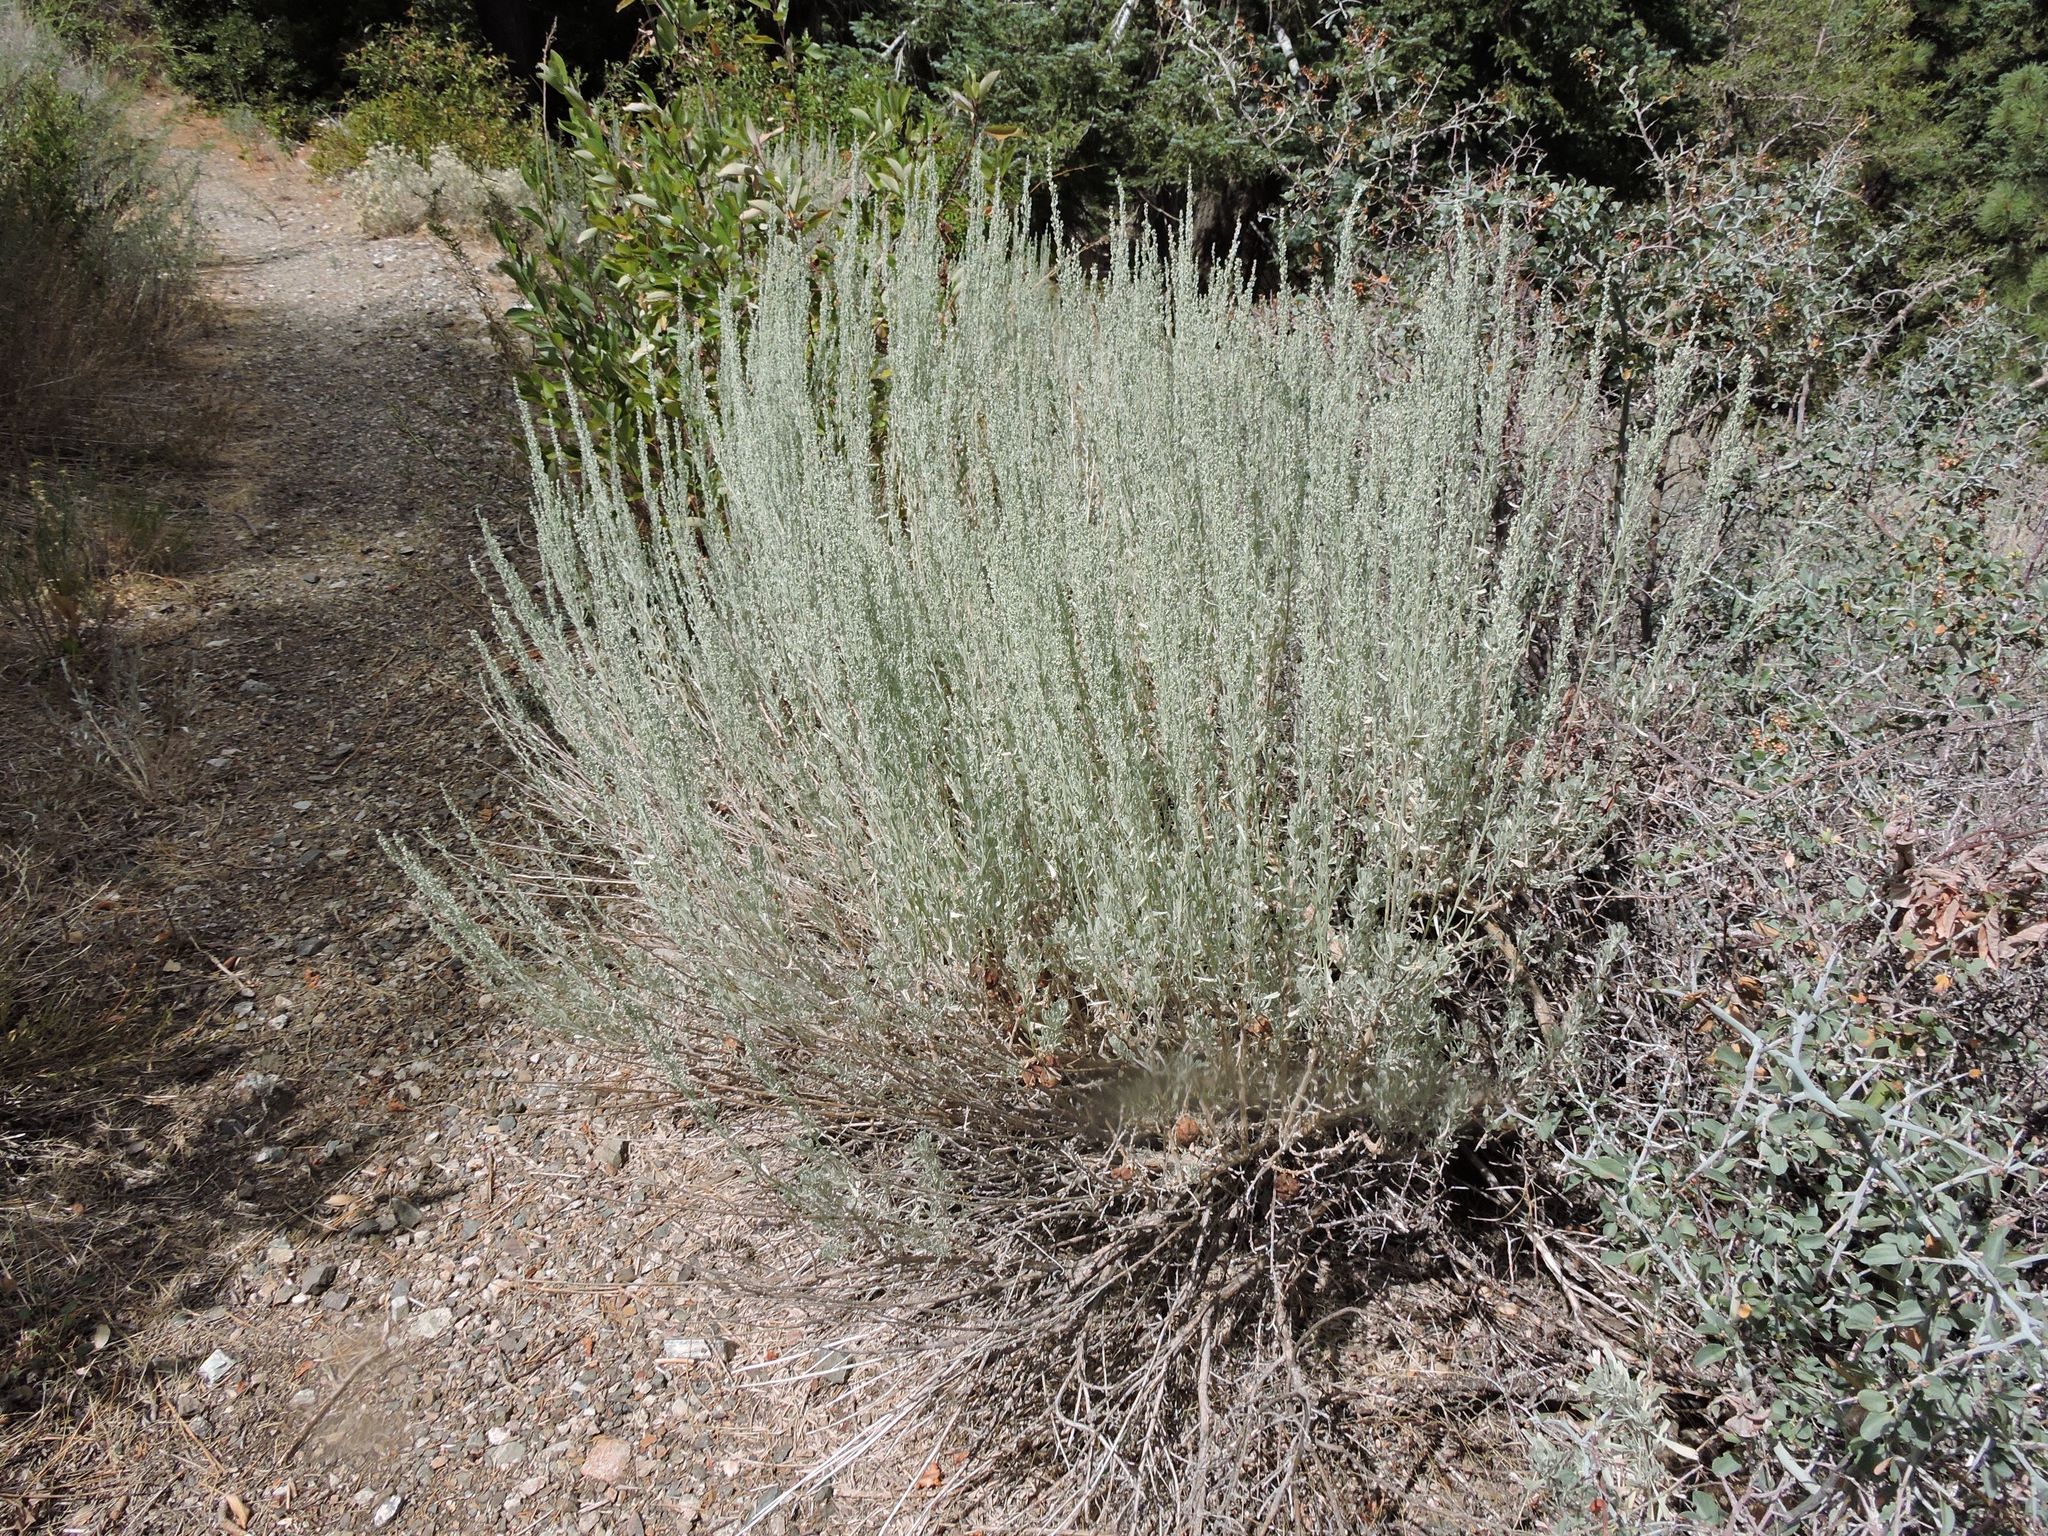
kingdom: Plantae
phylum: Tracheophyta
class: Magnoliopsida
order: Asterales
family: Asteraceae
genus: Artemisia
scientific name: Artemisia tridentata
